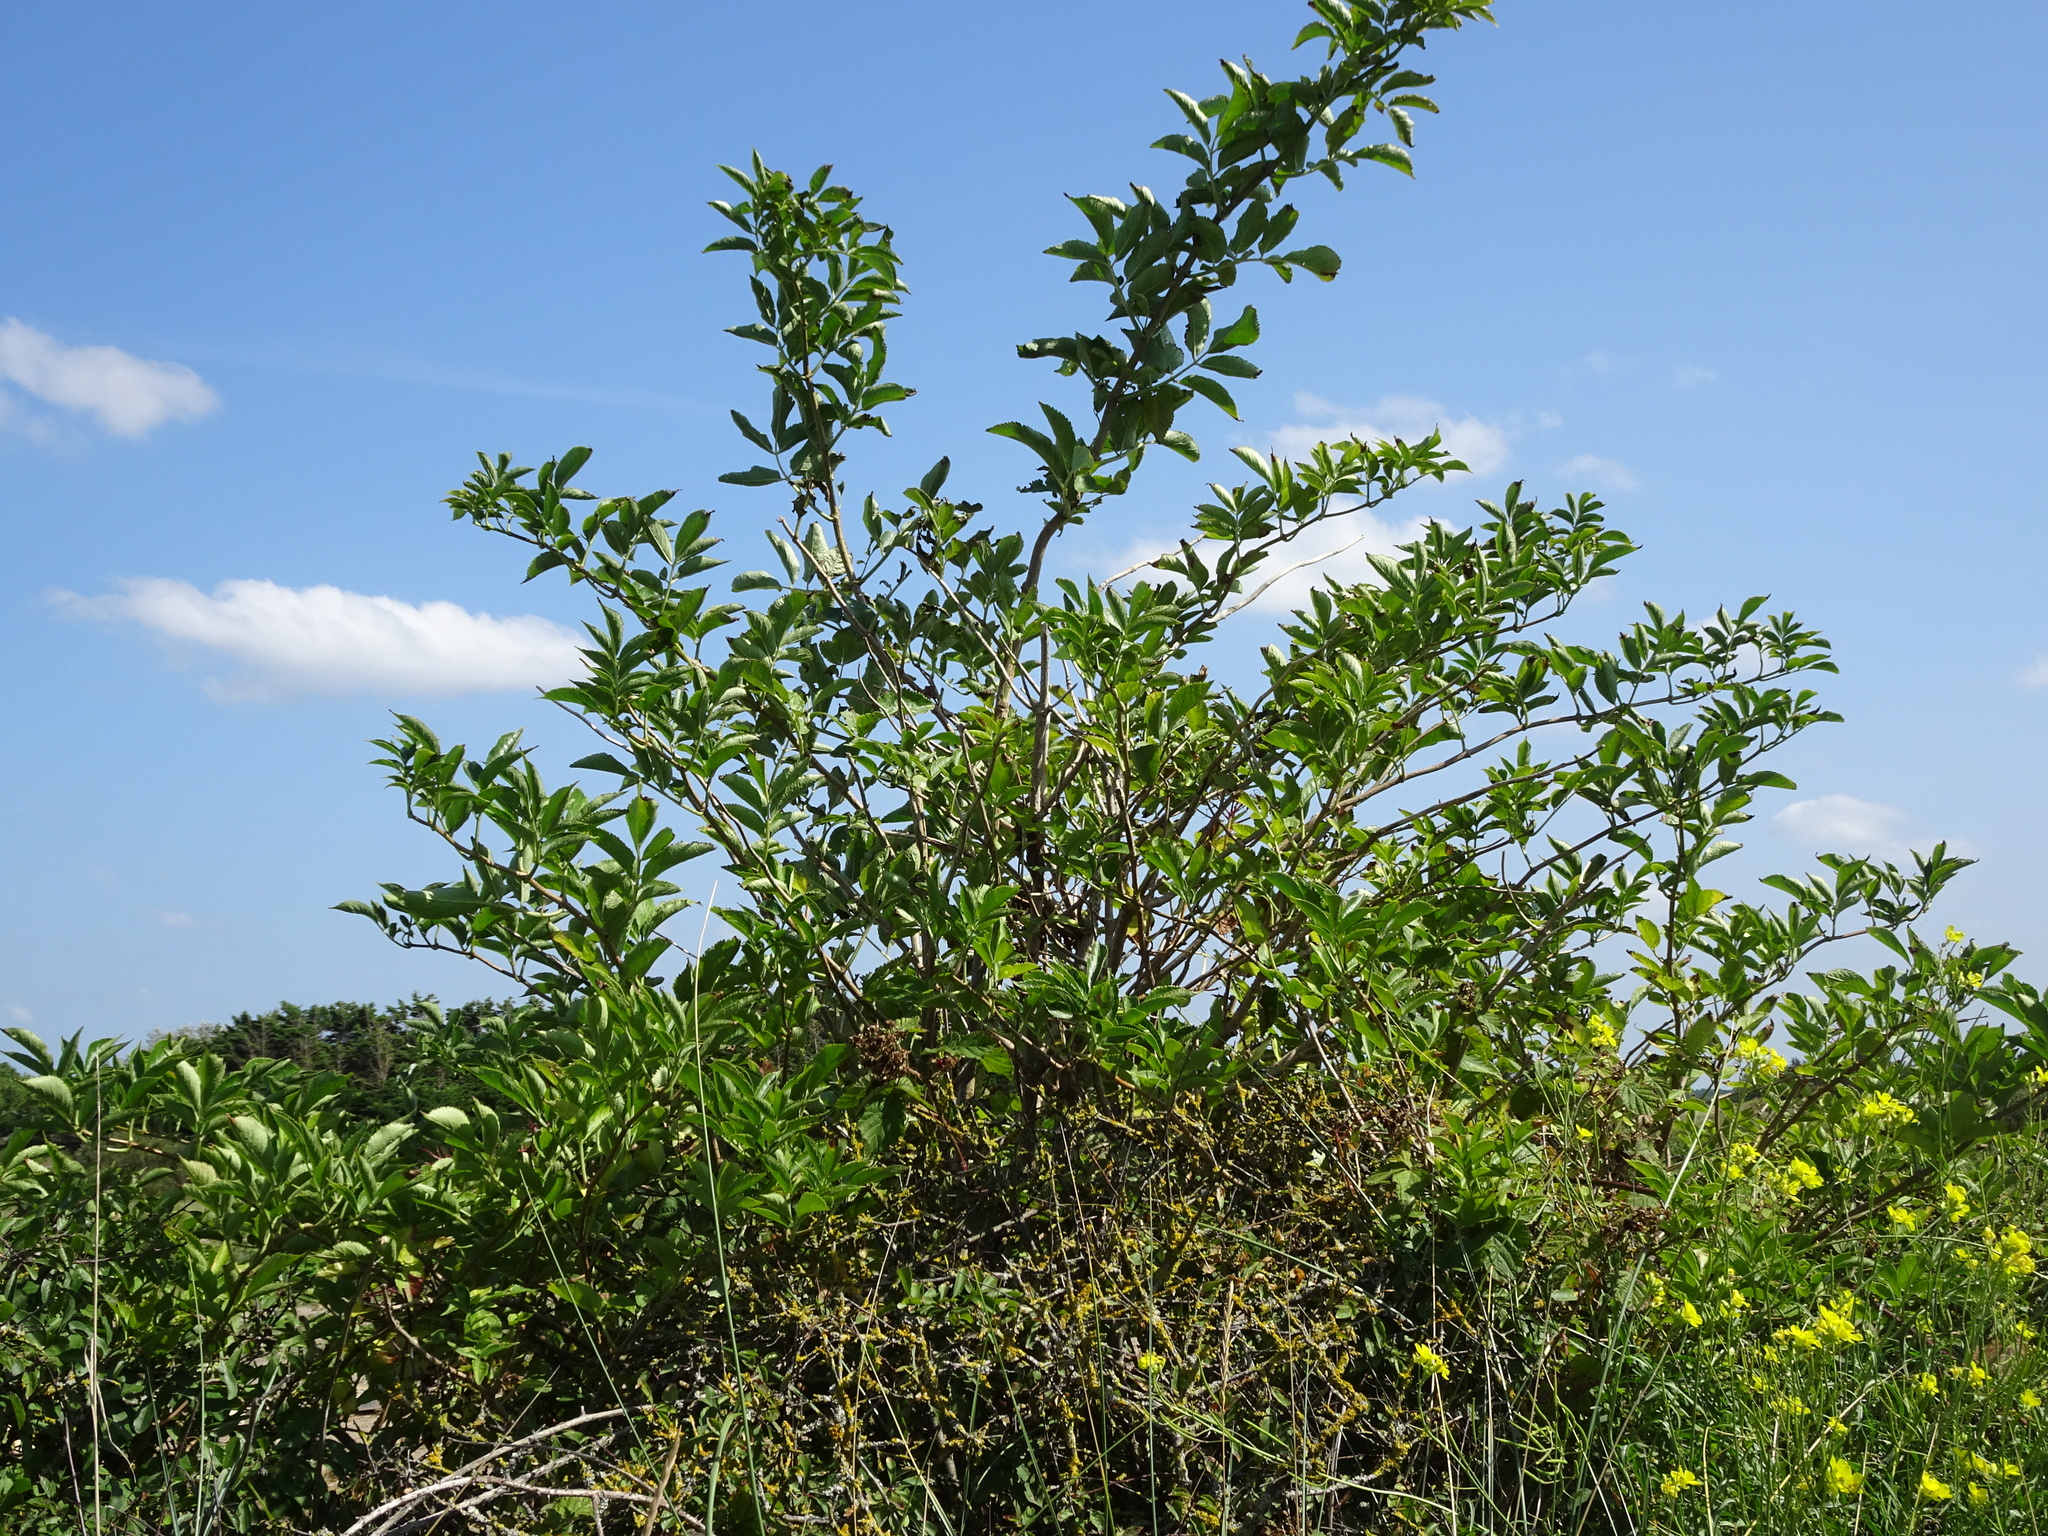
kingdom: Plantae
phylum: Tracheophyta
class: Magnoliopsida
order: Dipsacales
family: Viburnaceae
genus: Sambucus
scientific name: Sambucus nigra
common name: Elder
